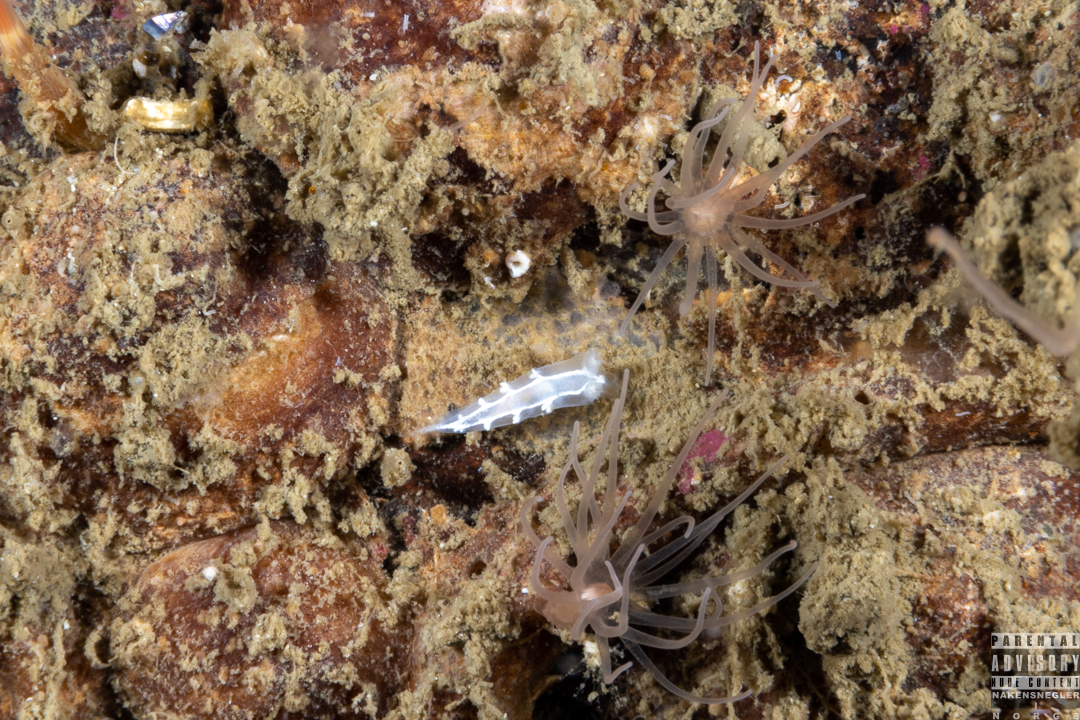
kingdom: Animalia
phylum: Mollusca
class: Gastropoda
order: Nudibranchia
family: Tritoniidae
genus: Duvaucelia
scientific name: Duvaucelia lineata
